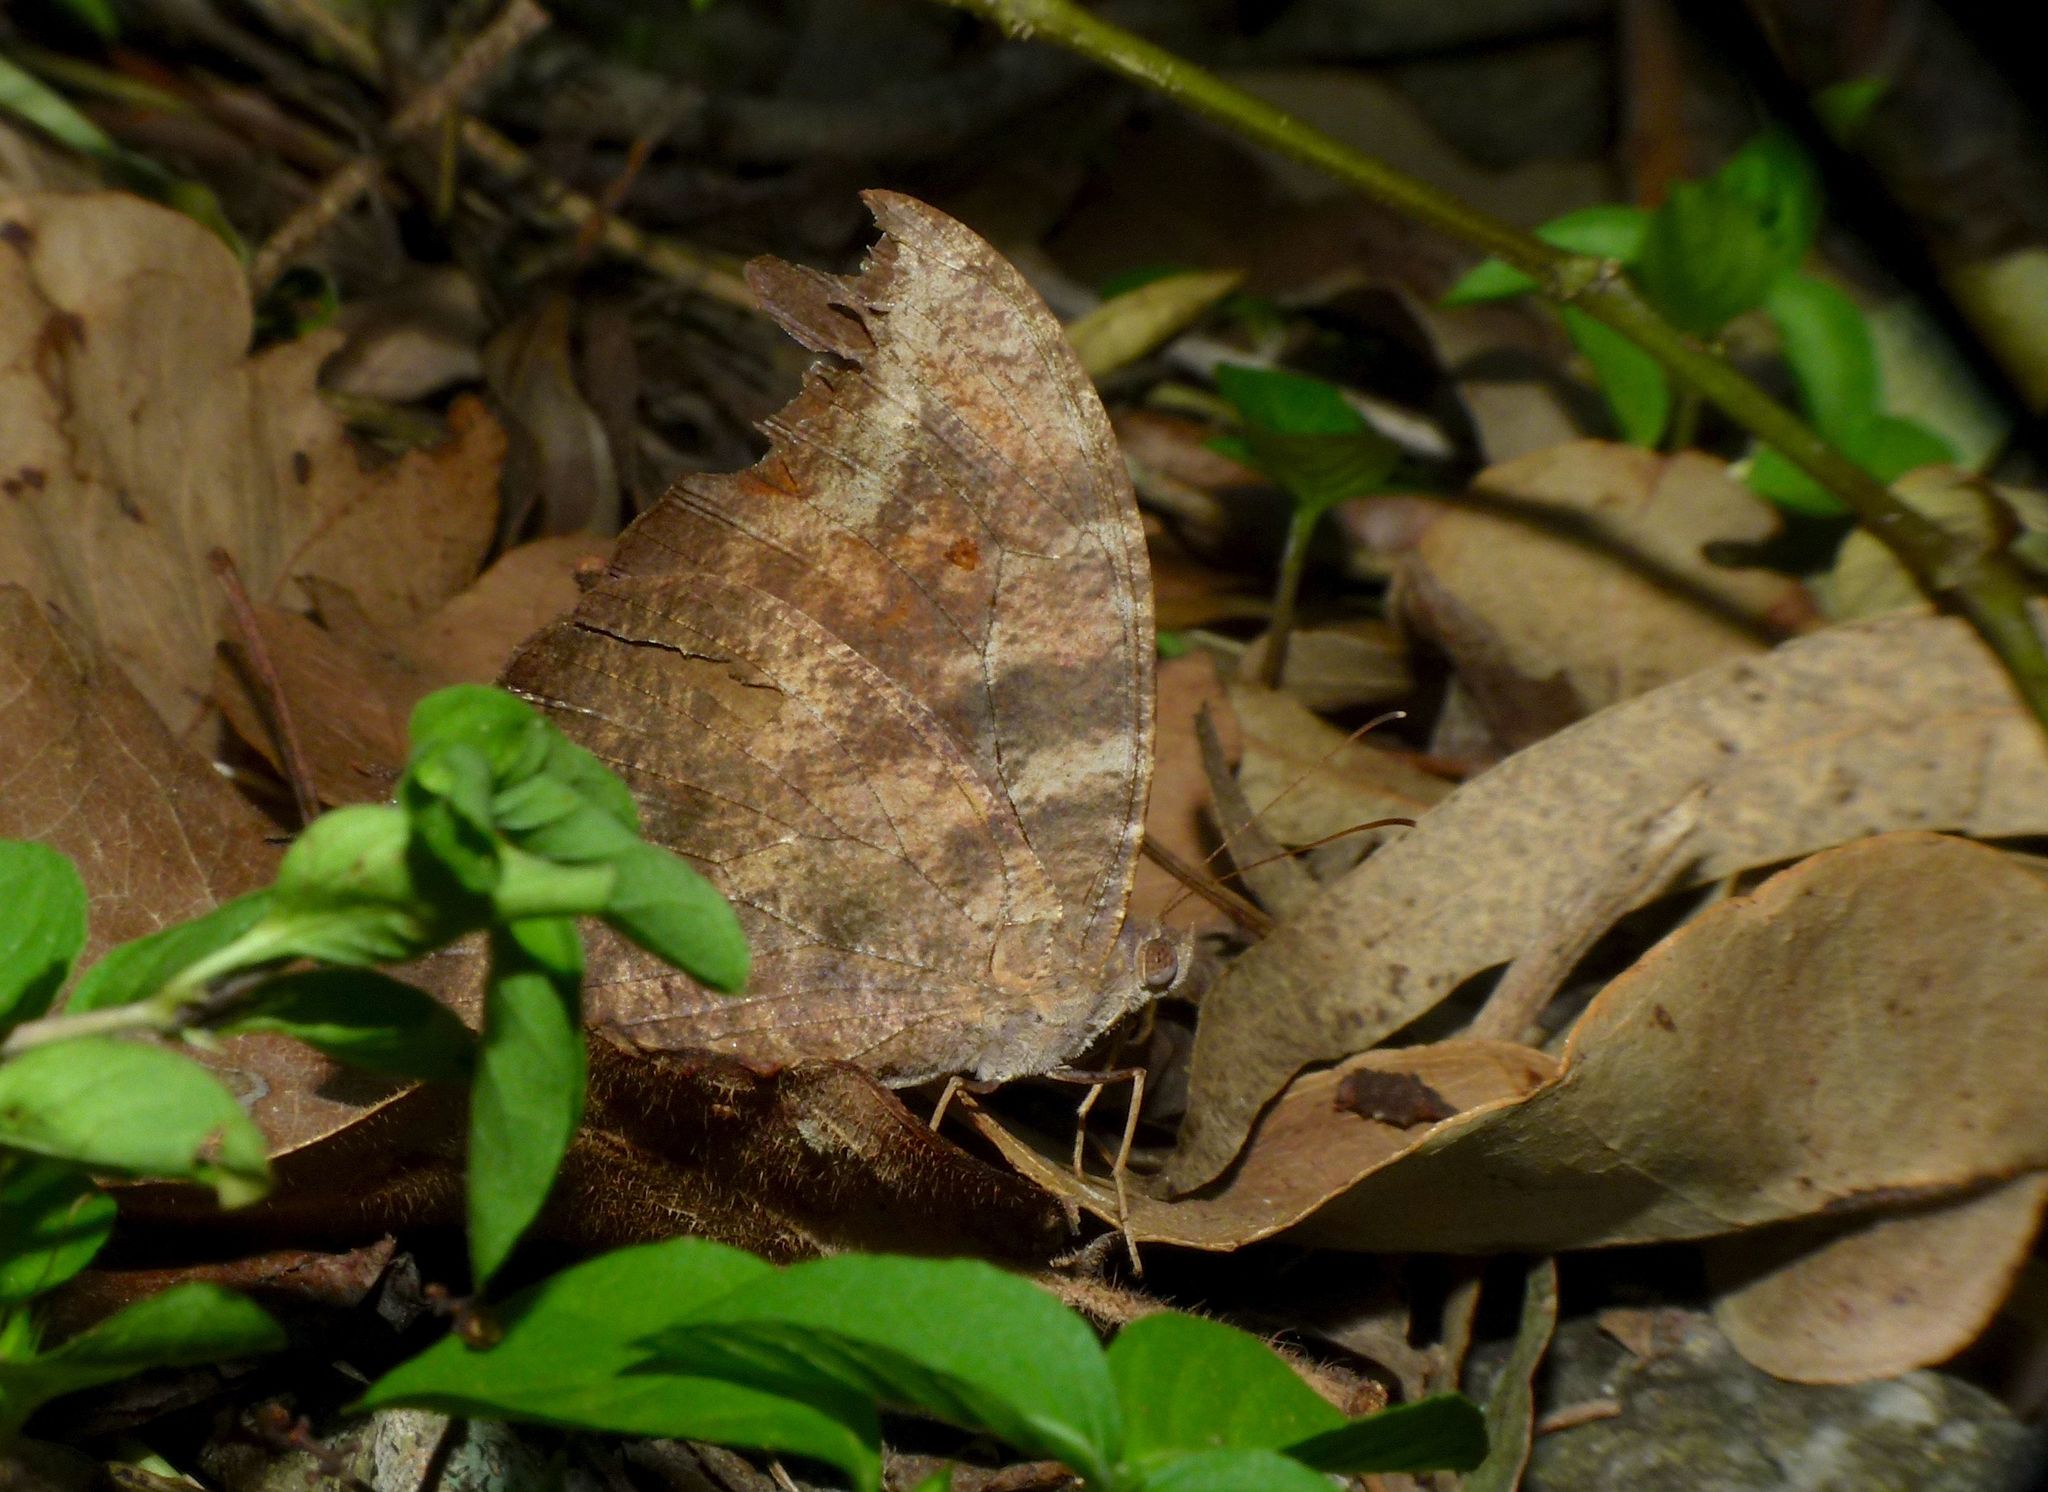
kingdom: Animalia
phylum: Arthropoda
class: Insecta
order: Lepidoptera
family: Nymphalidae
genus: Melanitis
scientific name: Melanitis leda
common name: Twilight brown
